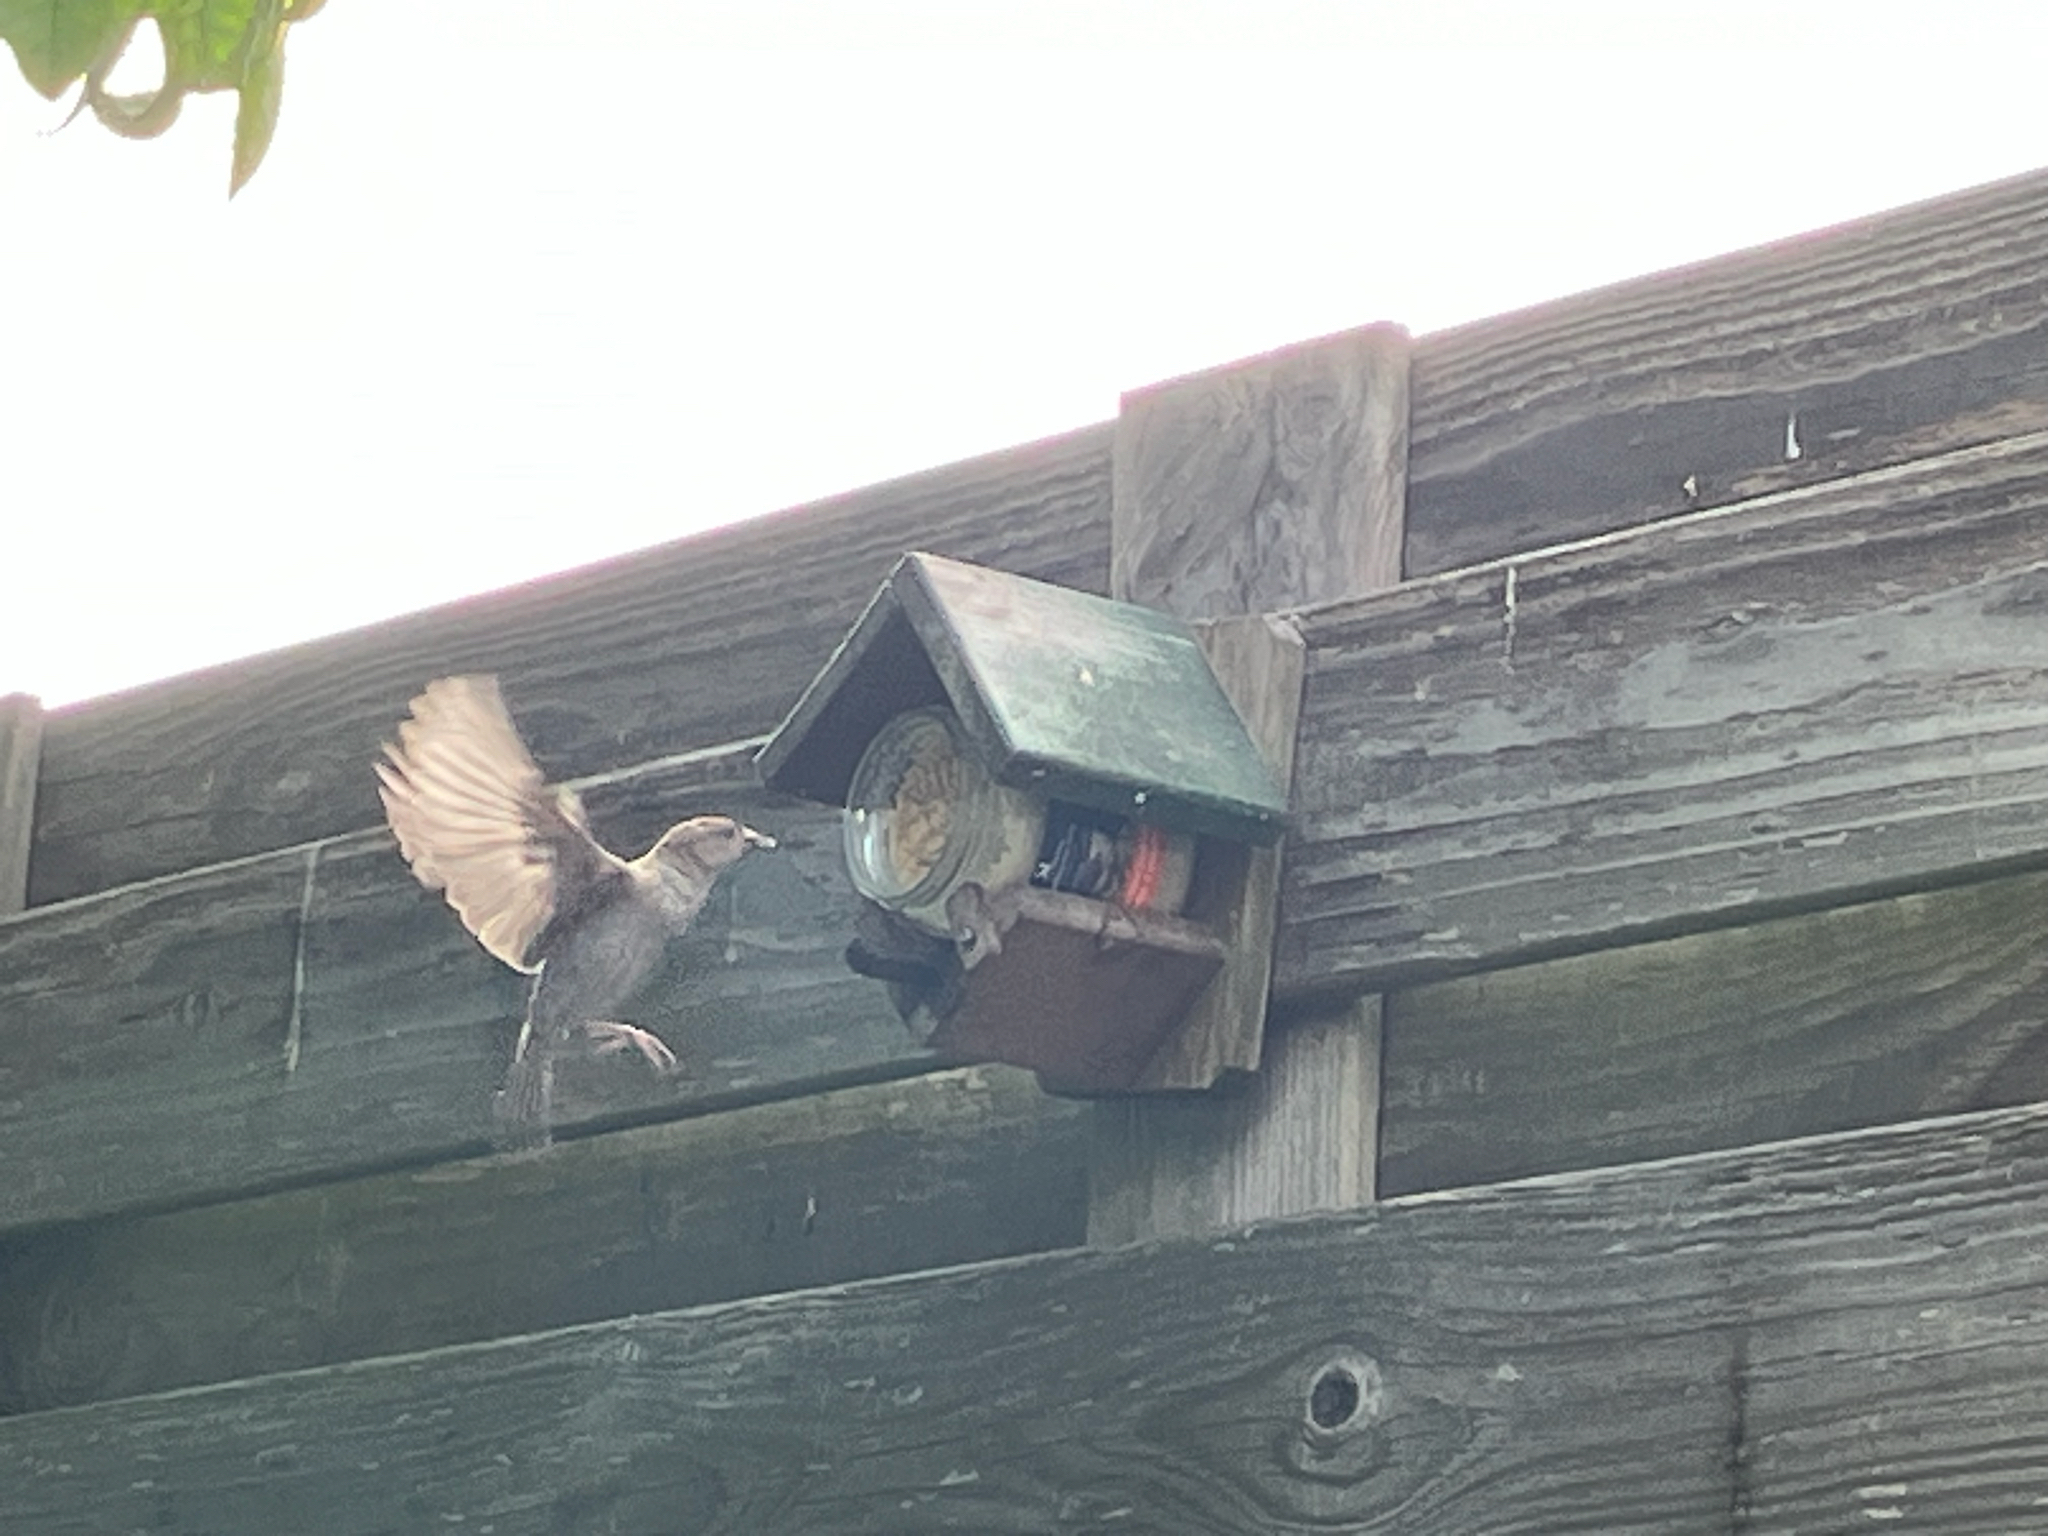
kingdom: Animalia
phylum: Chordata
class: Aves
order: Passeriformes
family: Passeridae
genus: Passer
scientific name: Passer domesticus
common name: House sparrow
